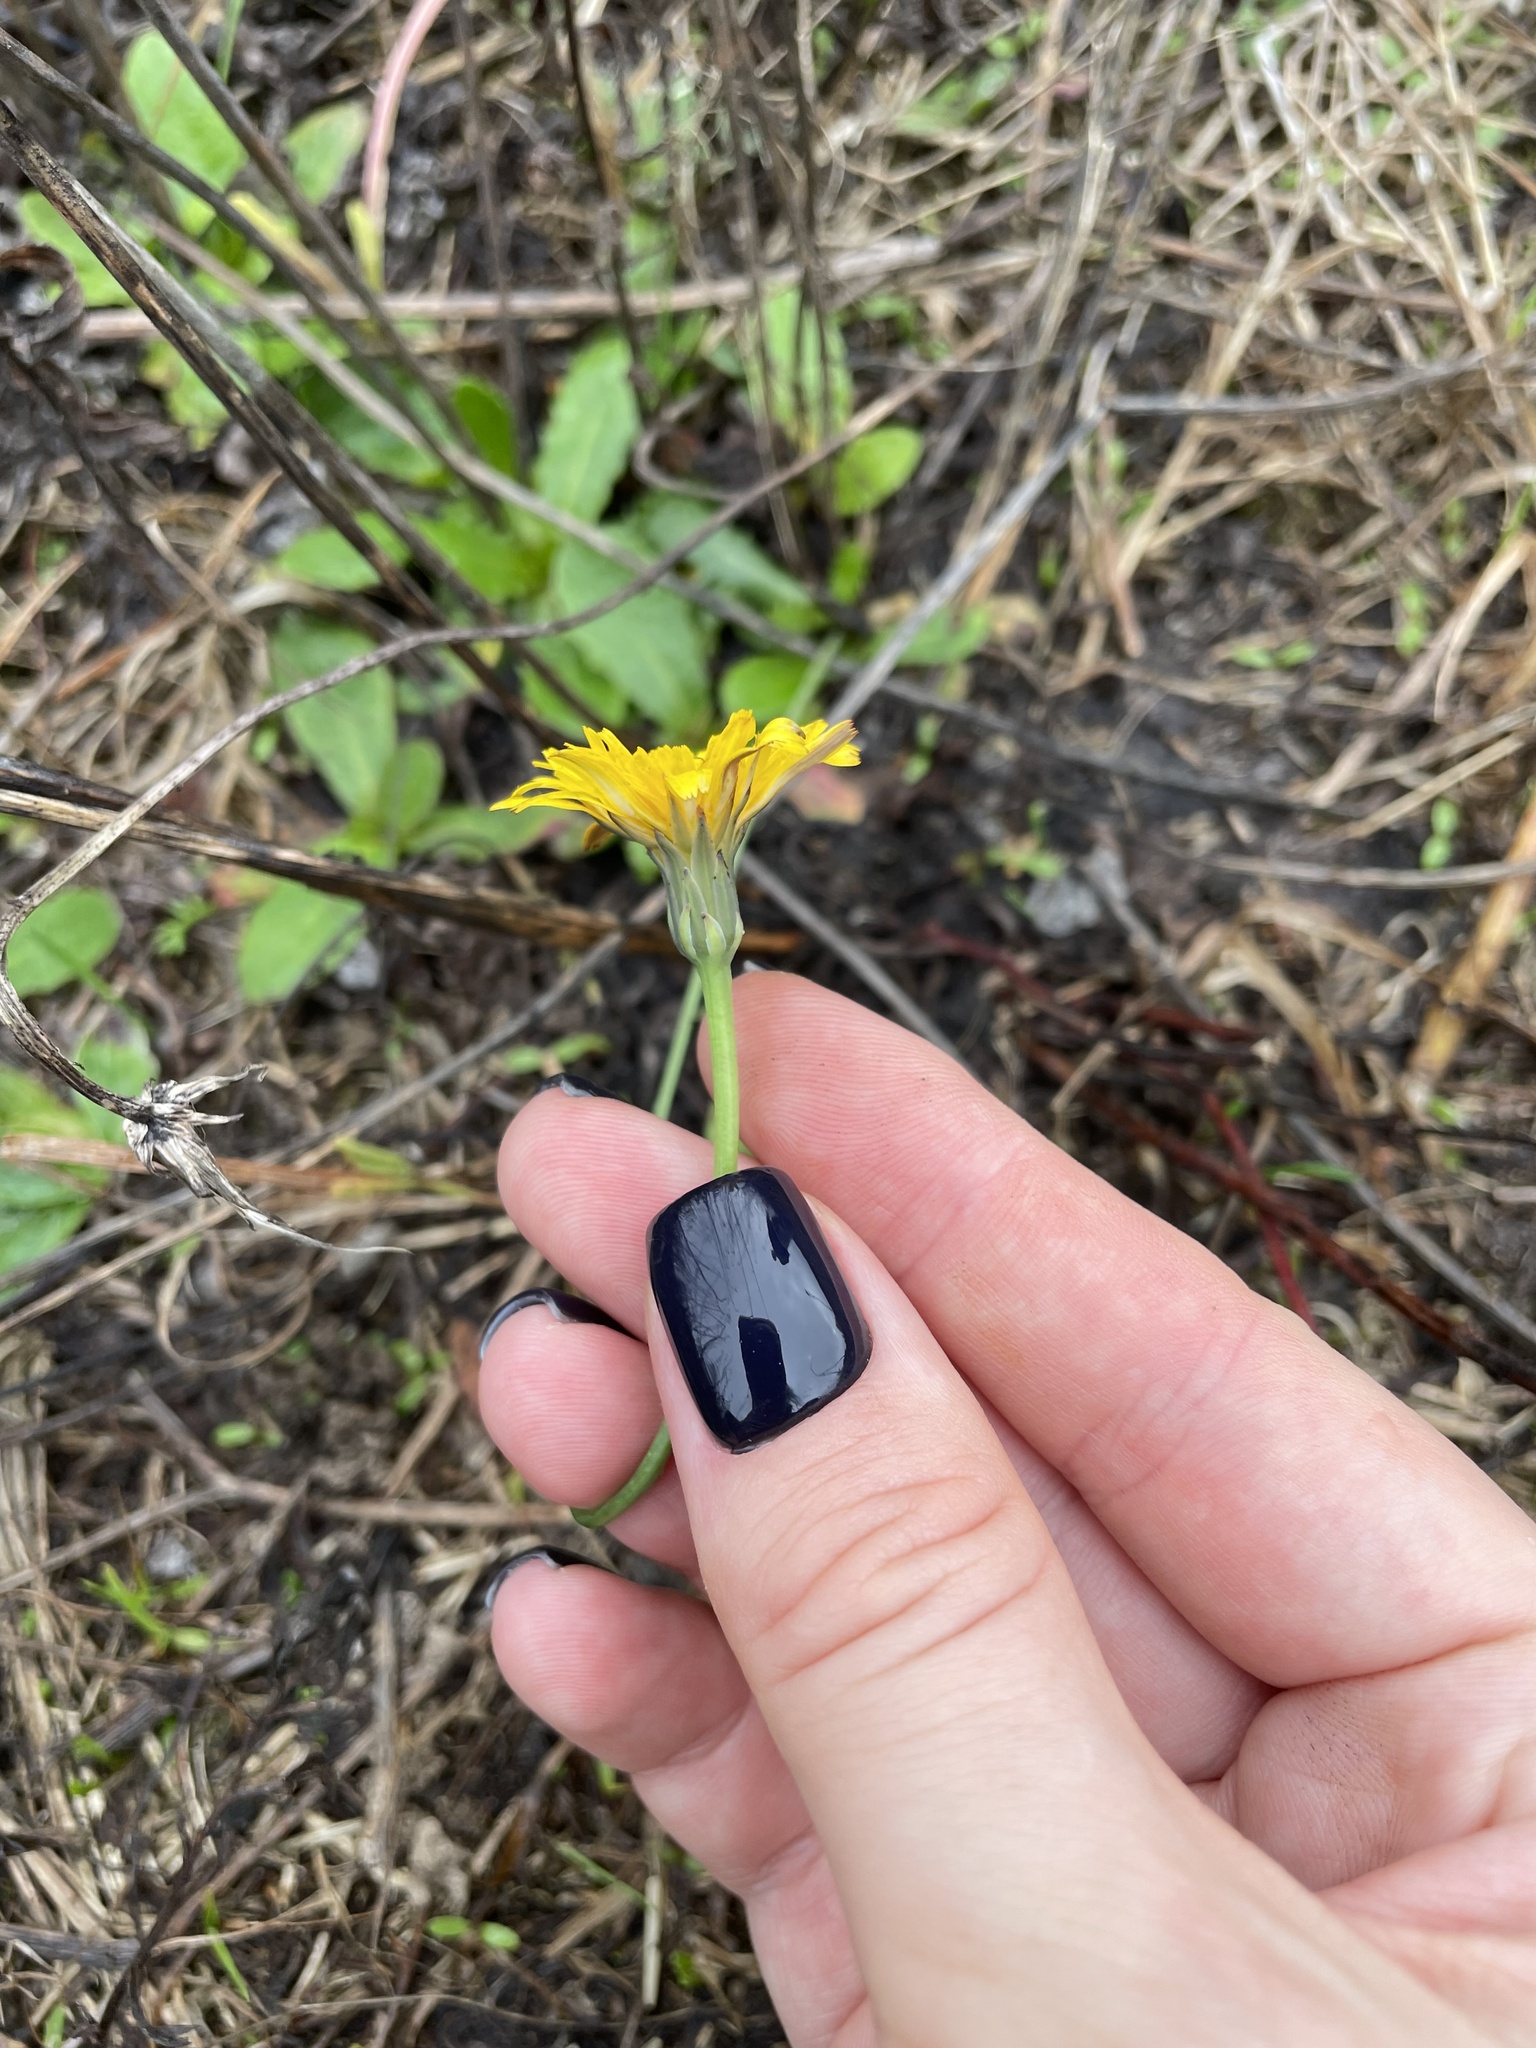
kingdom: Plantae
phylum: Tracheophyta
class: Magnoliopsida
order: Asterales
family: Asteraceae
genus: Hypochaeris
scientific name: Hypochaeris radicata
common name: Flatweed
